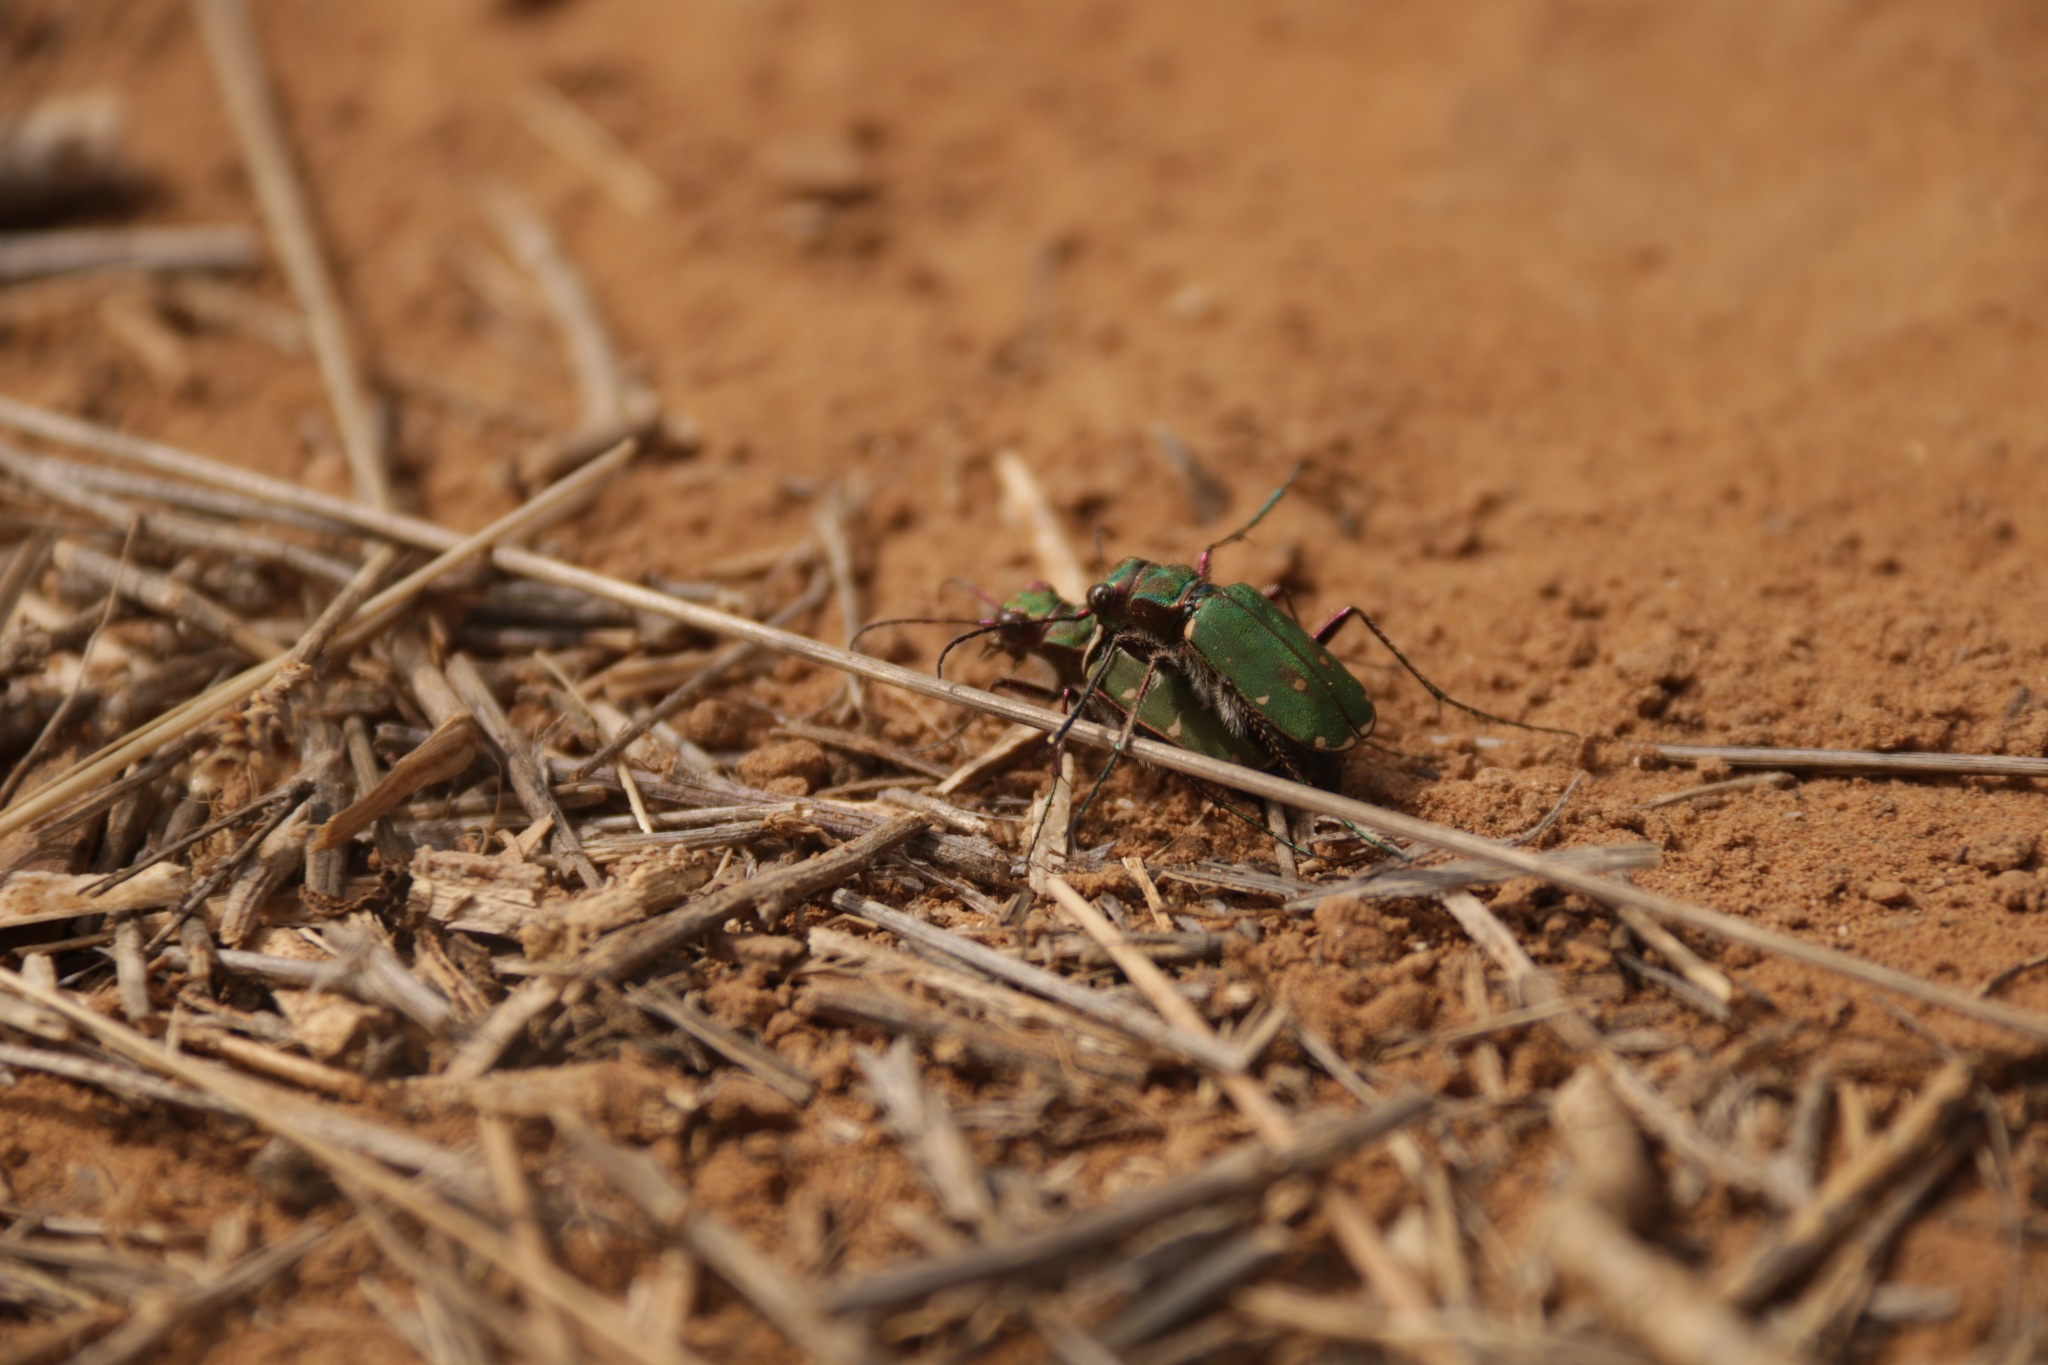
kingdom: Animalia
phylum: Arthropoda
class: Insecta
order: Coleoptera
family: Carabidae
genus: Cicindela
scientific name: Cicindela campestris
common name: Common tiger beetle
